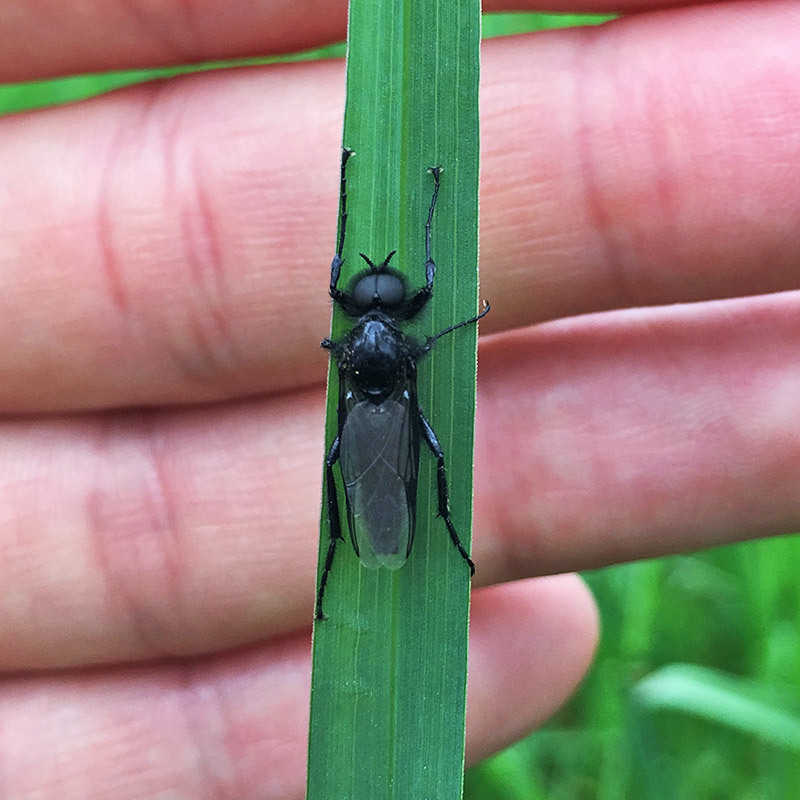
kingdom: Animalia
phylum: Arthropoda
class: Insecta
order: Diptera
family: Bibionidae
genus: Bibio
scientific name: Bibio marci
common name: St marks fly
